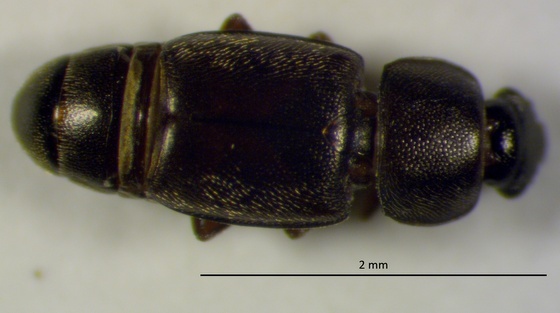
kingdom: Animalia
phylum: Arthropoda
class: Insecta
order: Coleoptera
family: Nitidulidae
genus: Carpophilus
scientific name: Carpophilus brachypterus
